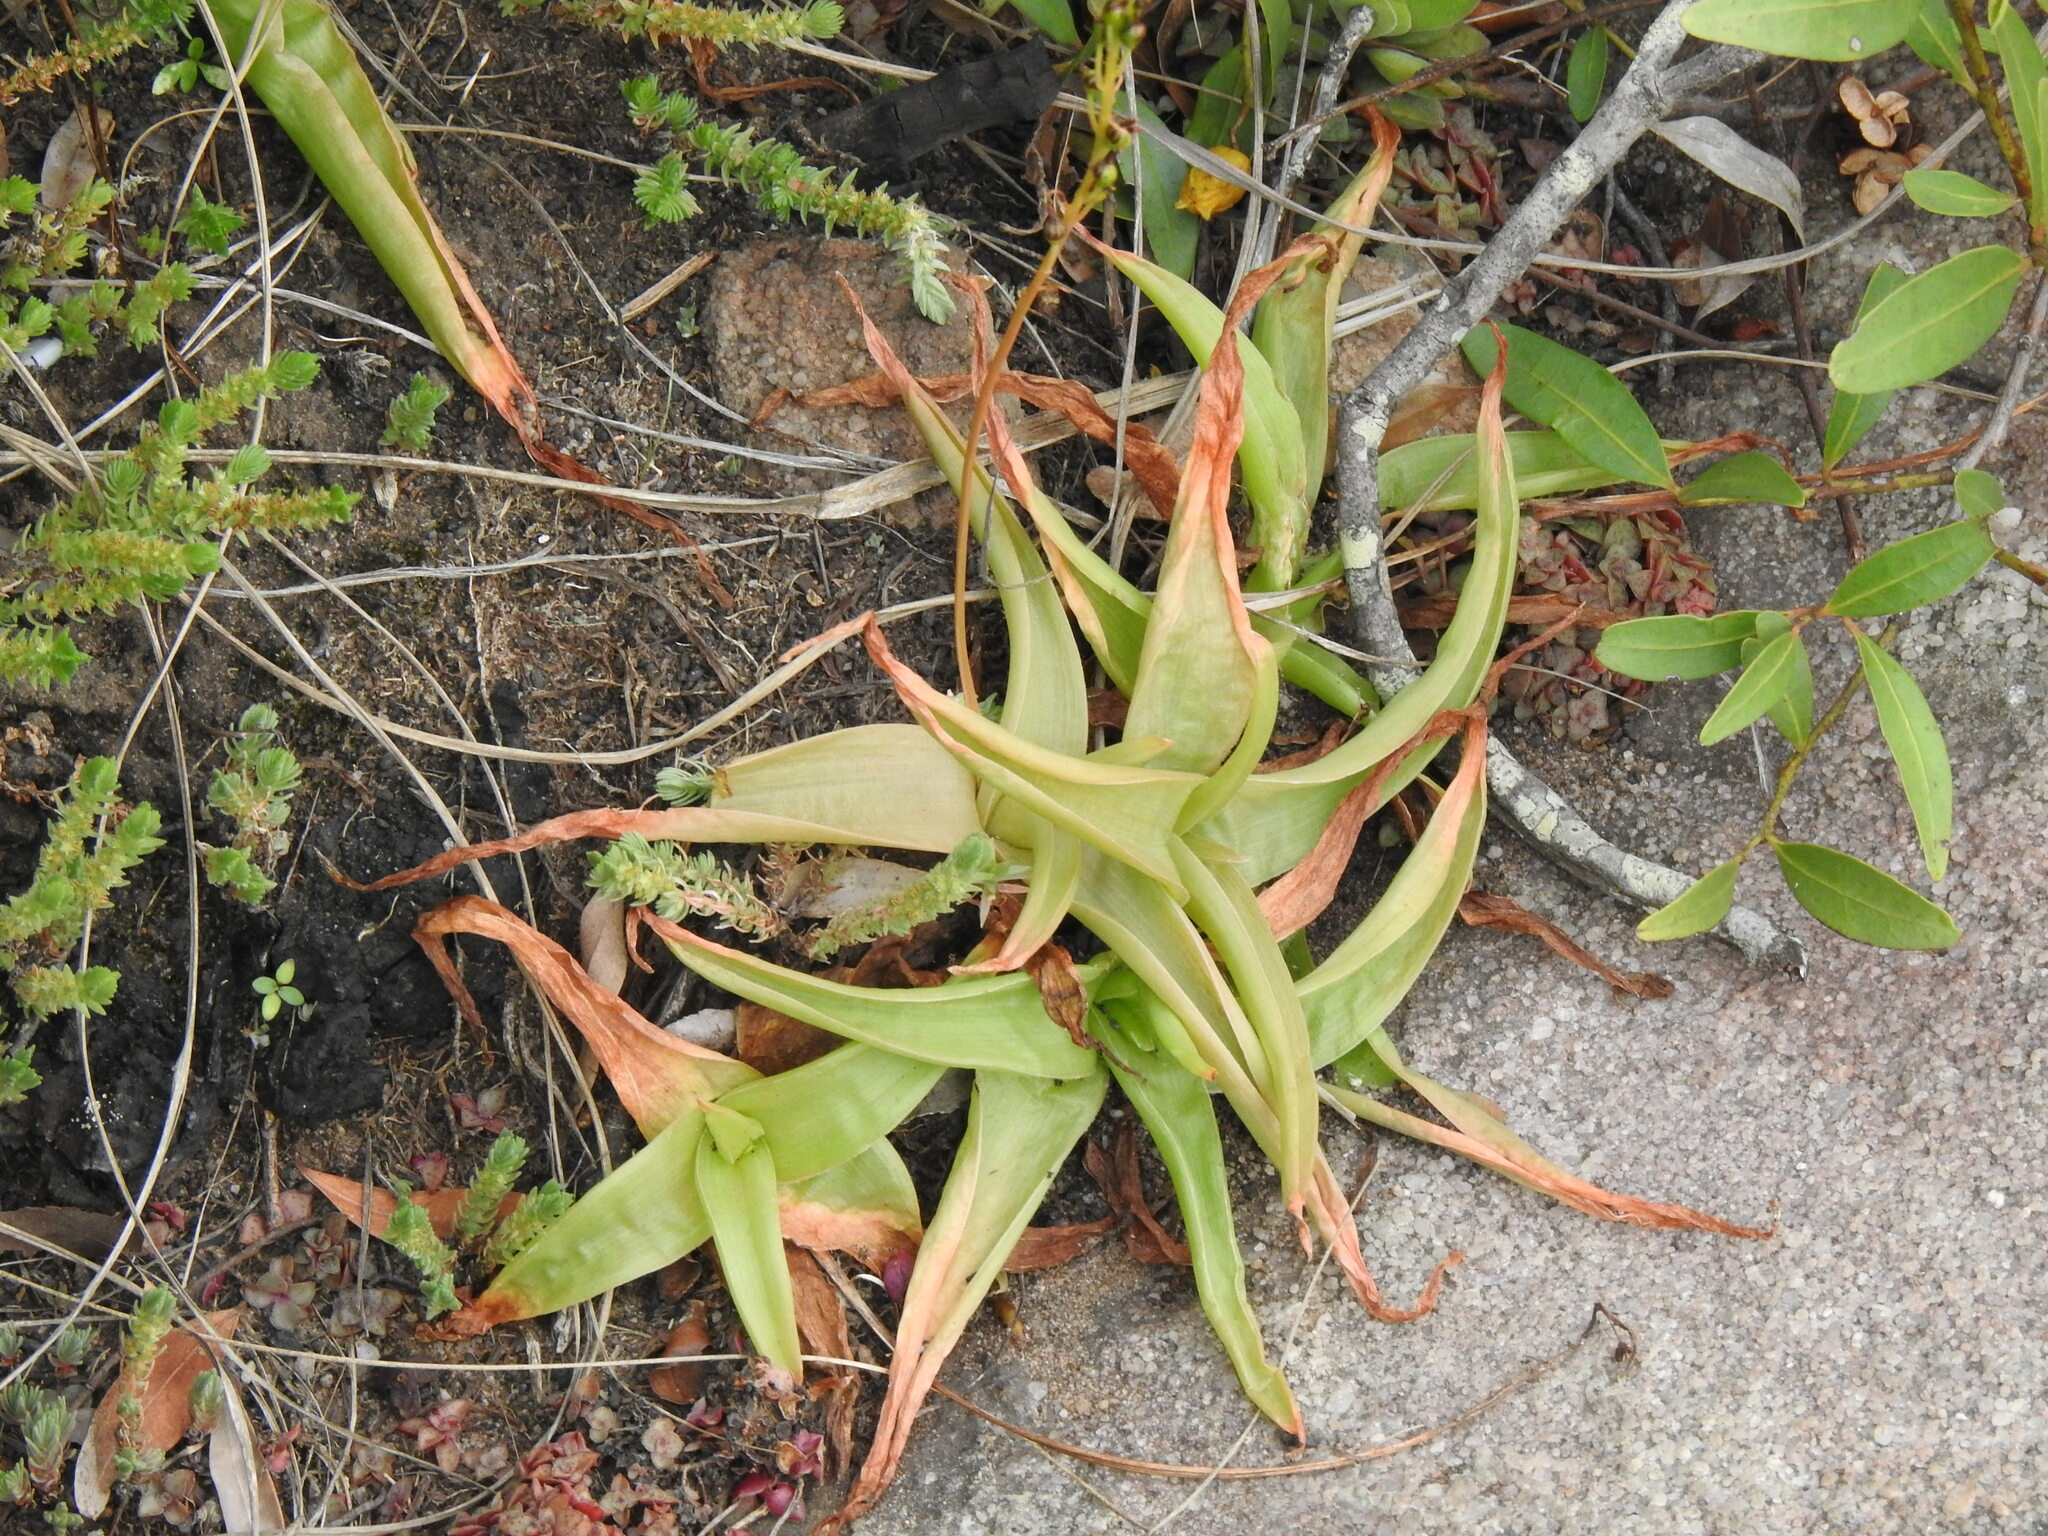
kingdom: Plantae
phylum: Tracheophyta
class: Liliopsida
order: Asparagales
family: Asphodelaceae
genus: Bulbine
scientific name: Bulbine latifolia
